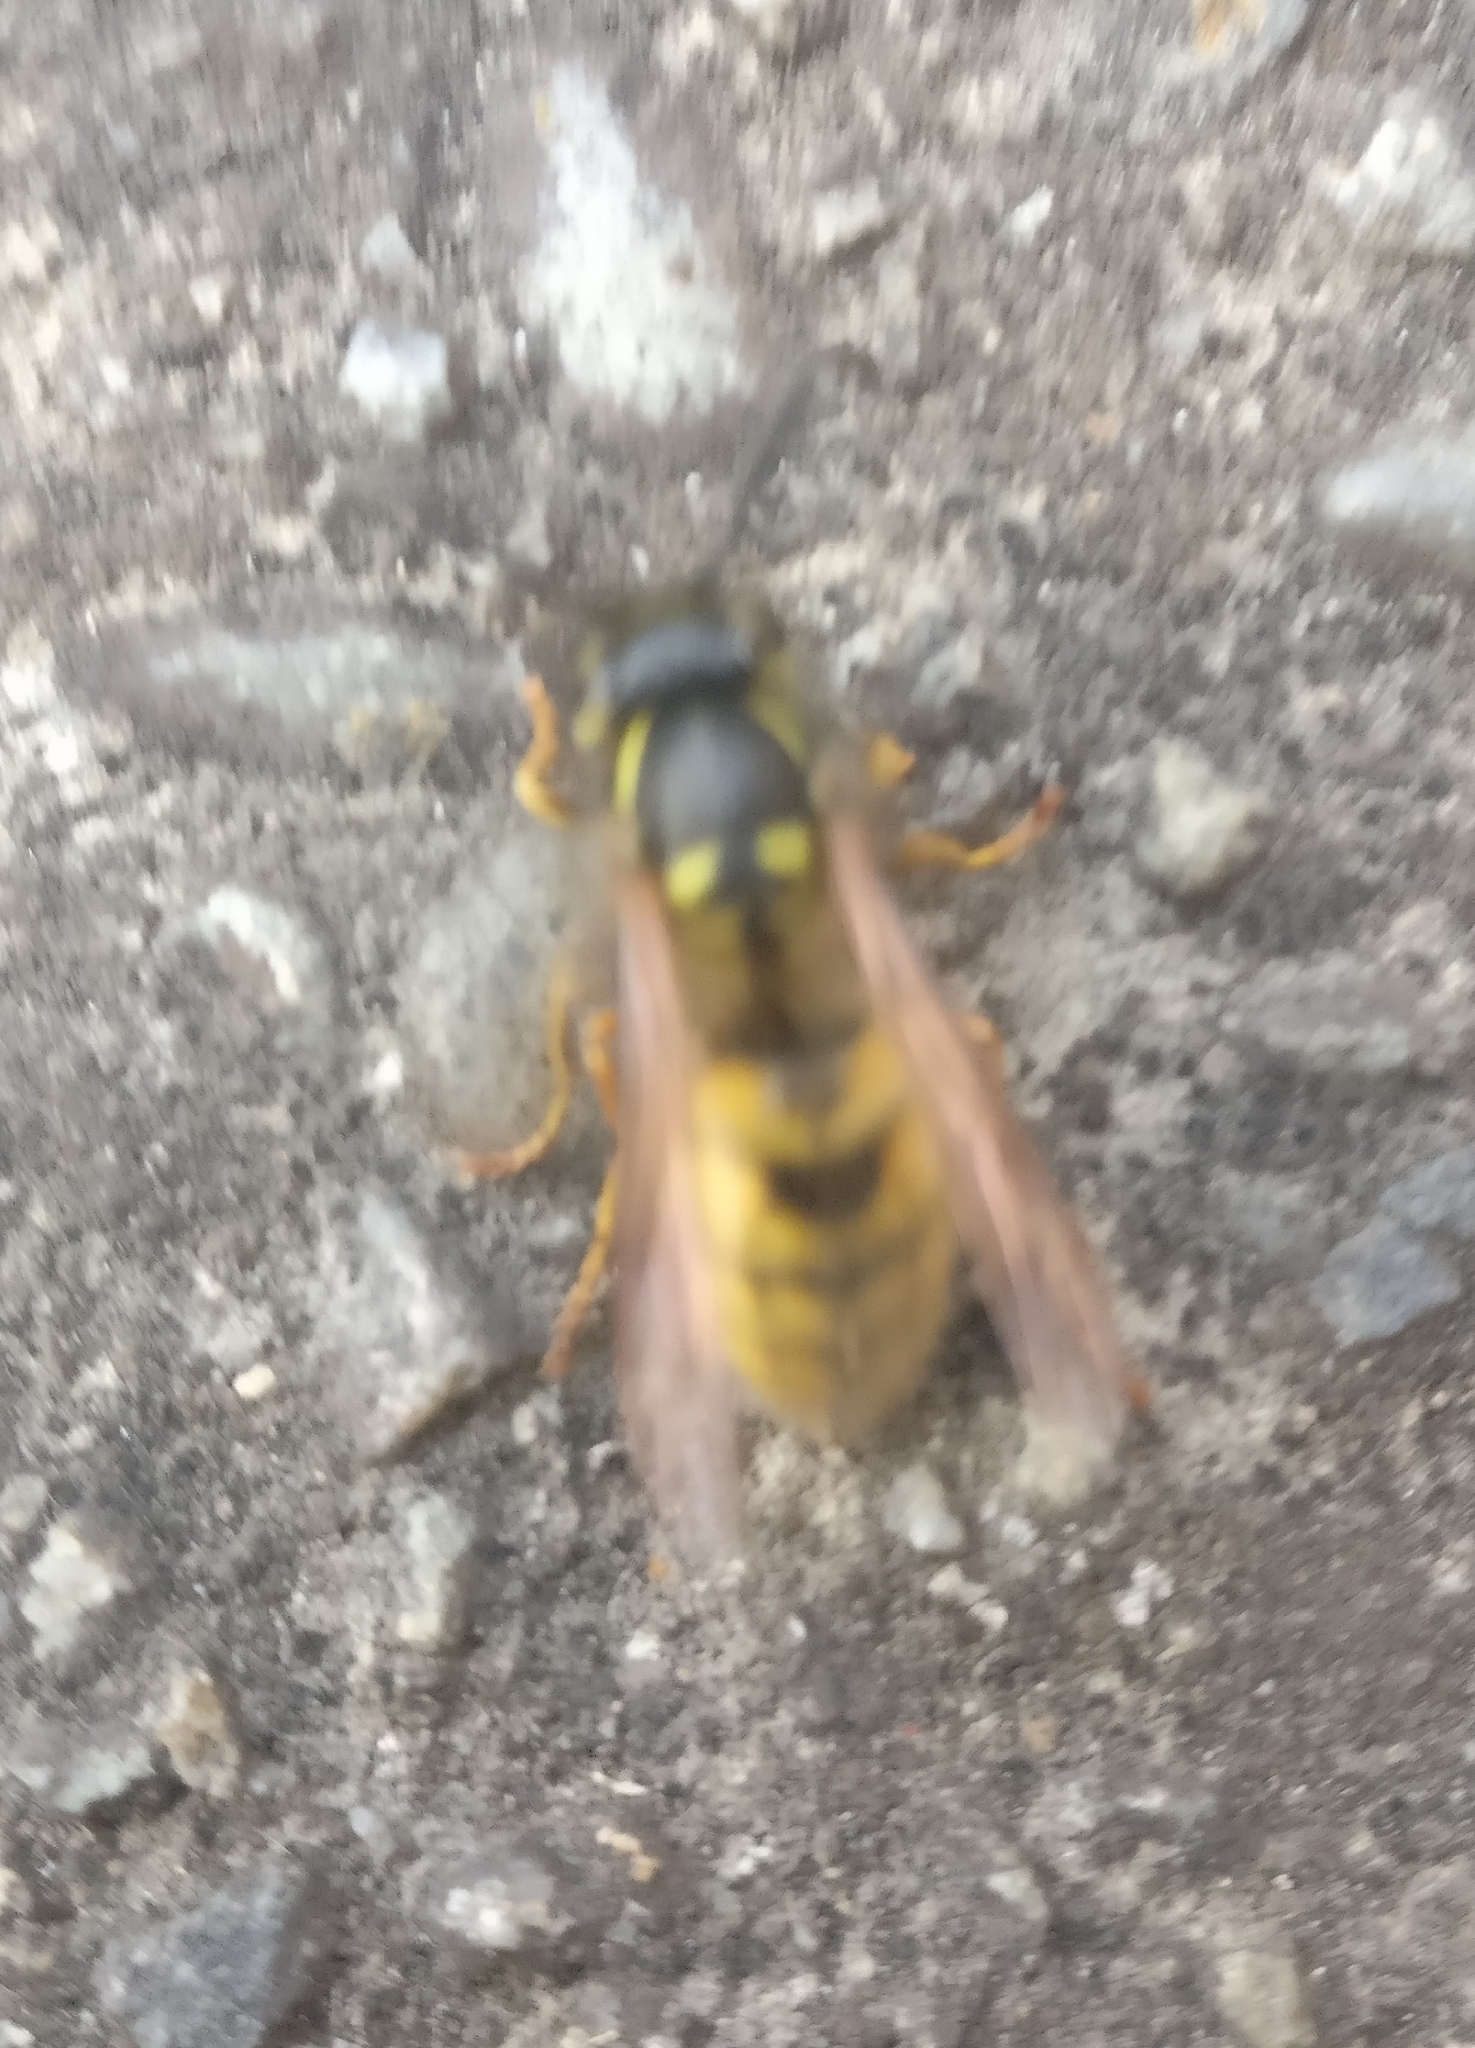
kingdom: Animalia
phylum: Arthropoda
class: Insecta
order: Hymenoptera
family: Vespidae
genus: Vespula
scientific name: Vespula vulgaris
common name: Common wasp
